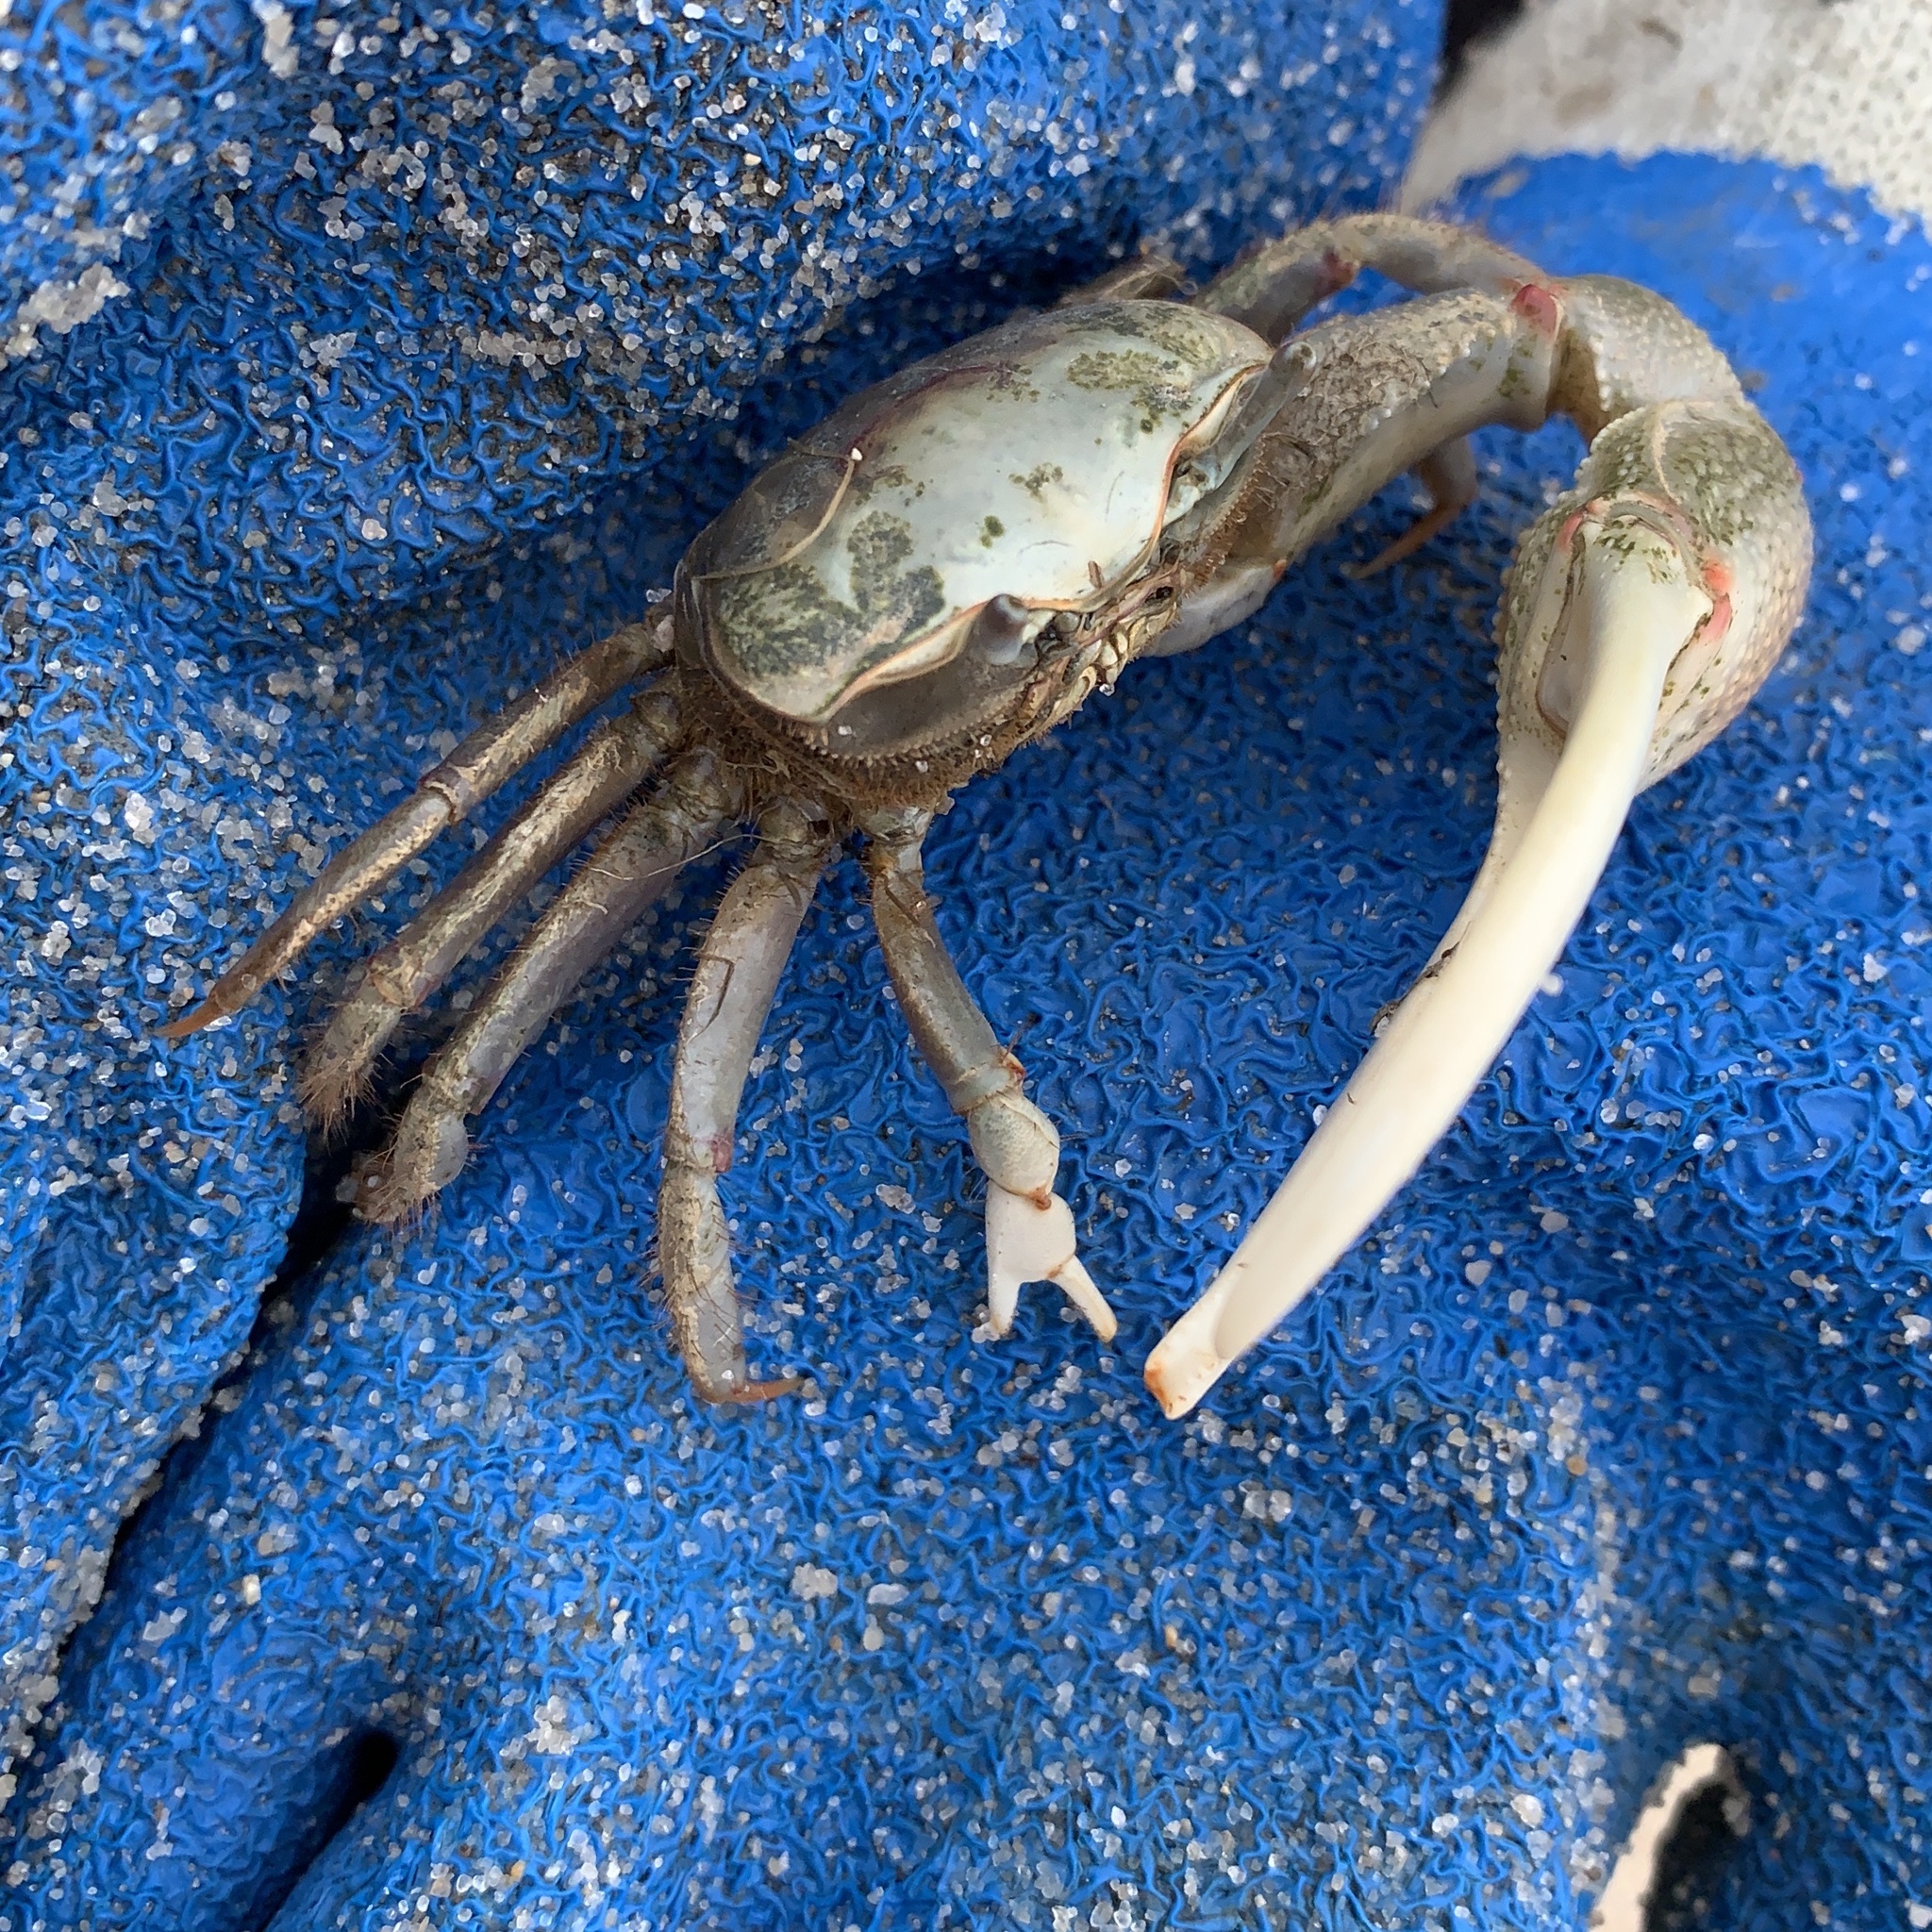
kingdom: Animalia
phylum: Arthropoda
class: Malacostraca
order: Decapoda
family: Ocypodidae
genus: Minuca
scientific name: Minuca minax
